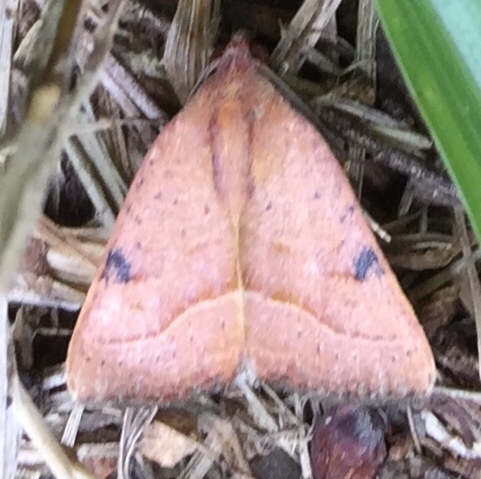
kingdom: Animalia
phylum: Arthropoda
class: Insecta
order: Lepidoptera
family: Noctuidae
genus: Galgula
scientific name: Galgula partita
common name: Wedgeling
